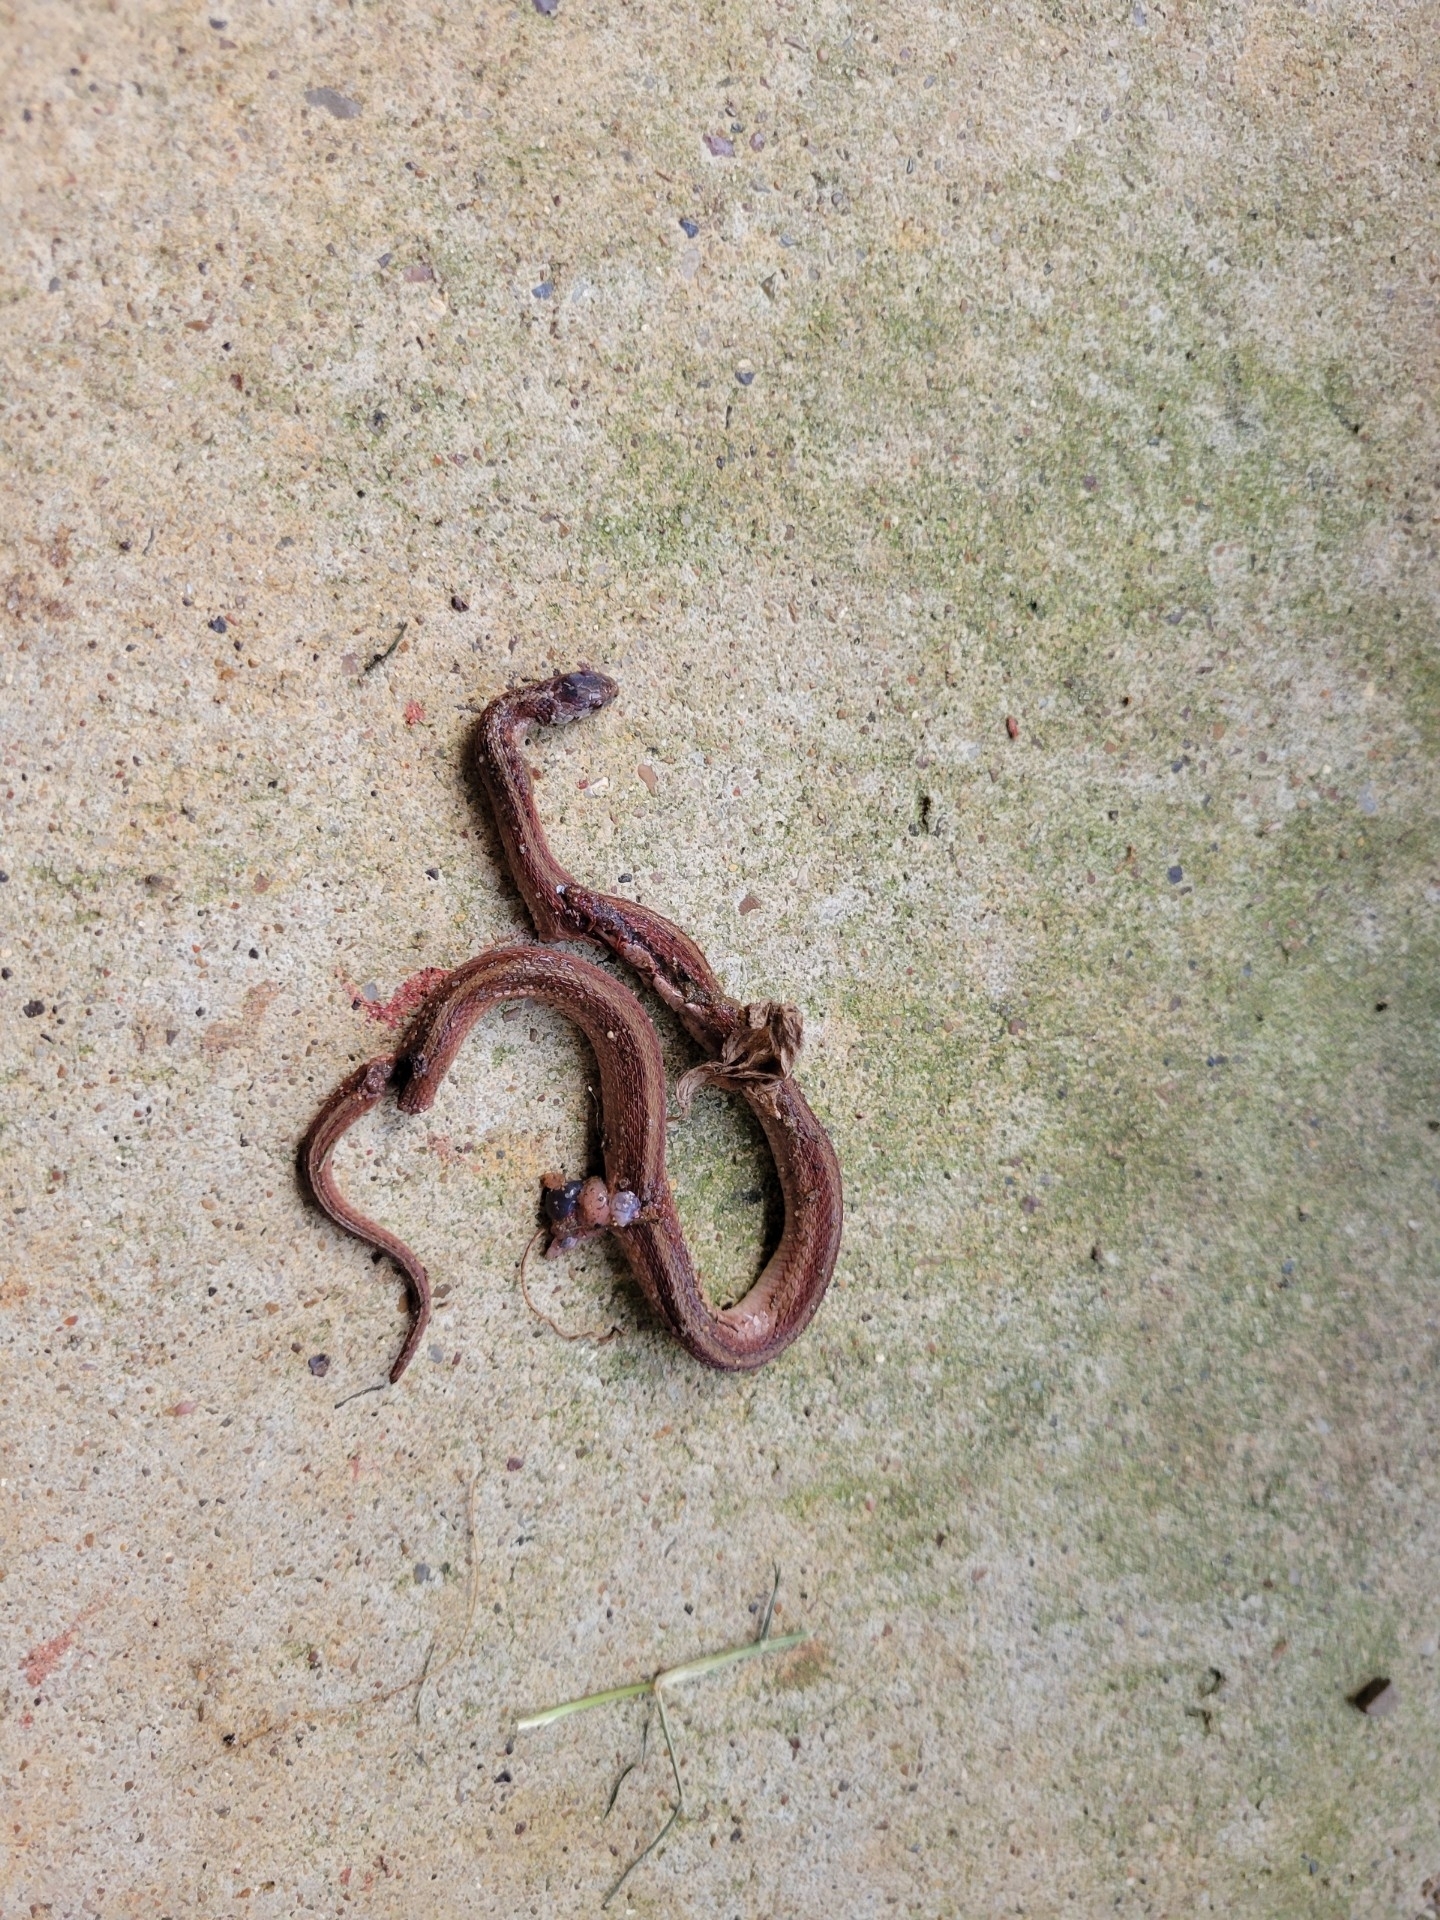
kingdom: Animalia
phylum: Chordata
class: Squamata
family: Colubridae
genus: Storeria
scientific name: Storeria dekayi
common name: (dekay’s) brown snake
